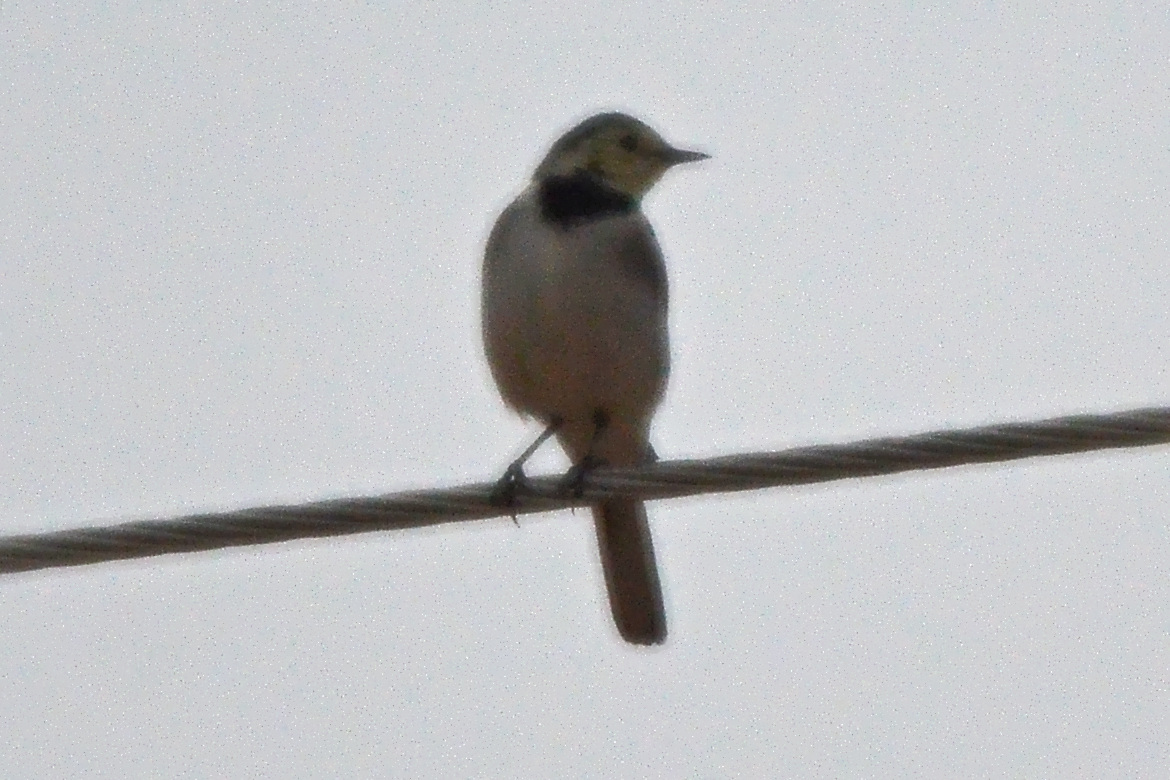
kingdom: Animalia
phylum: Chordata
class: Aves
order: Passeriformes
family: Motacillidae
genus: Motacilla
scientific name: Motacilla alba
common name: White wagtail
